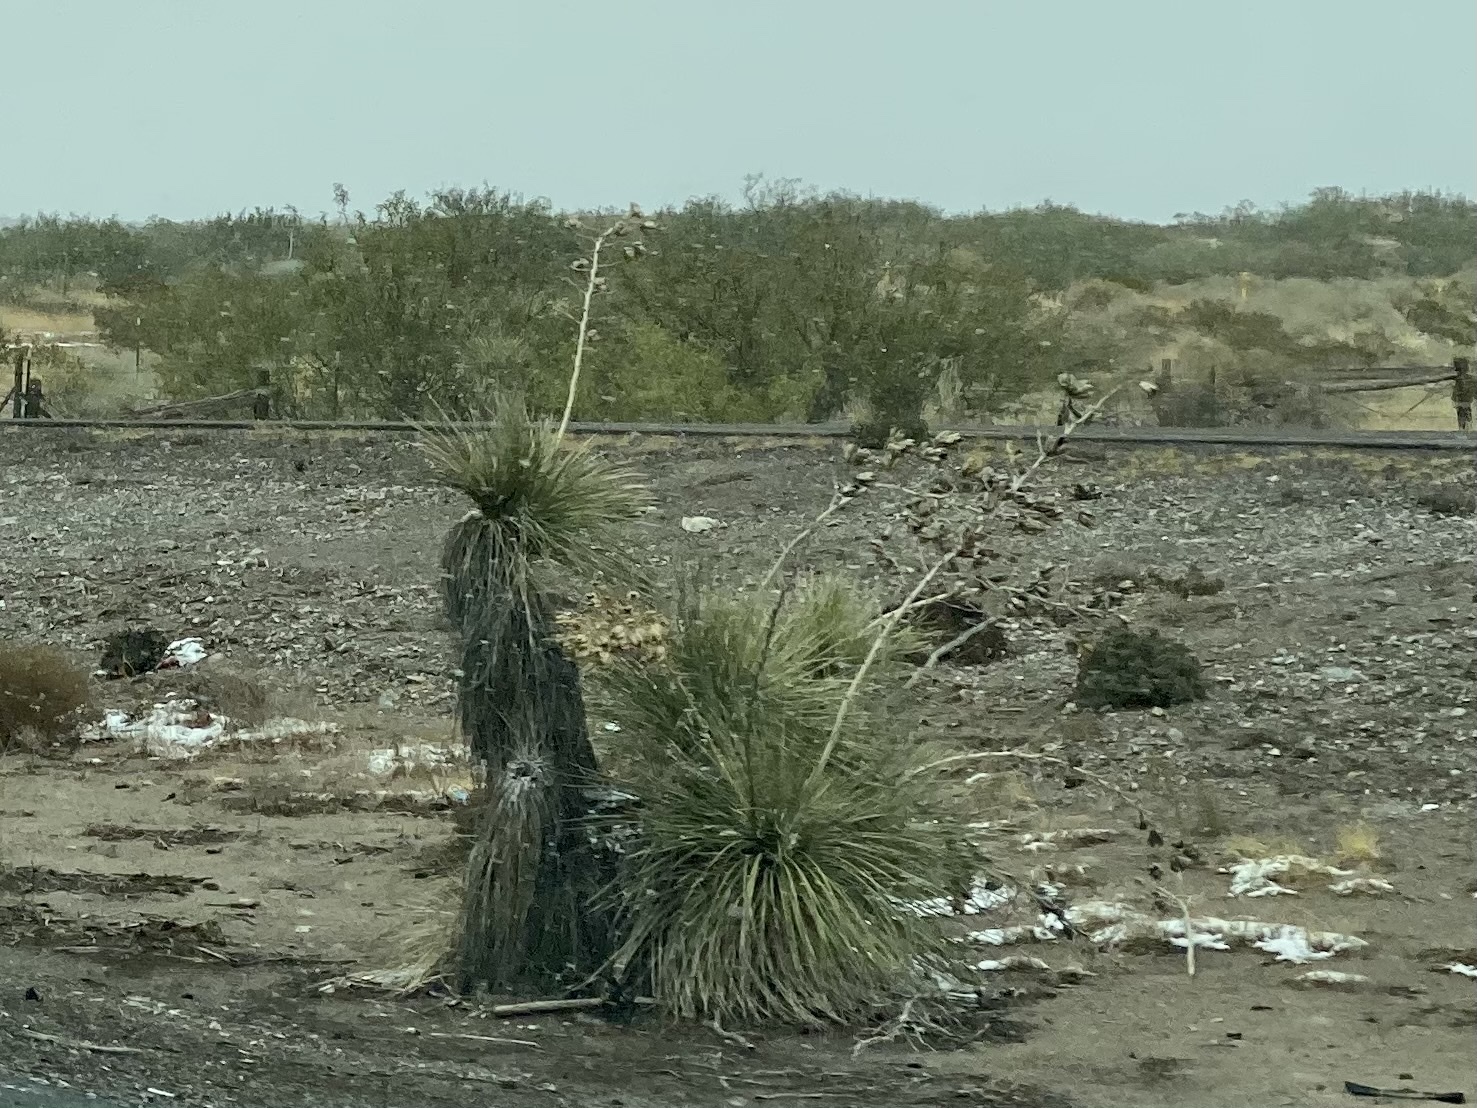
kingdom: Plantae
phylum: Tracheophyta
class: Liliopsida
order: Asparagales
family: Asparagaceae
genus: Yucca
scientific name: Yucca elata
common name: Palmella
